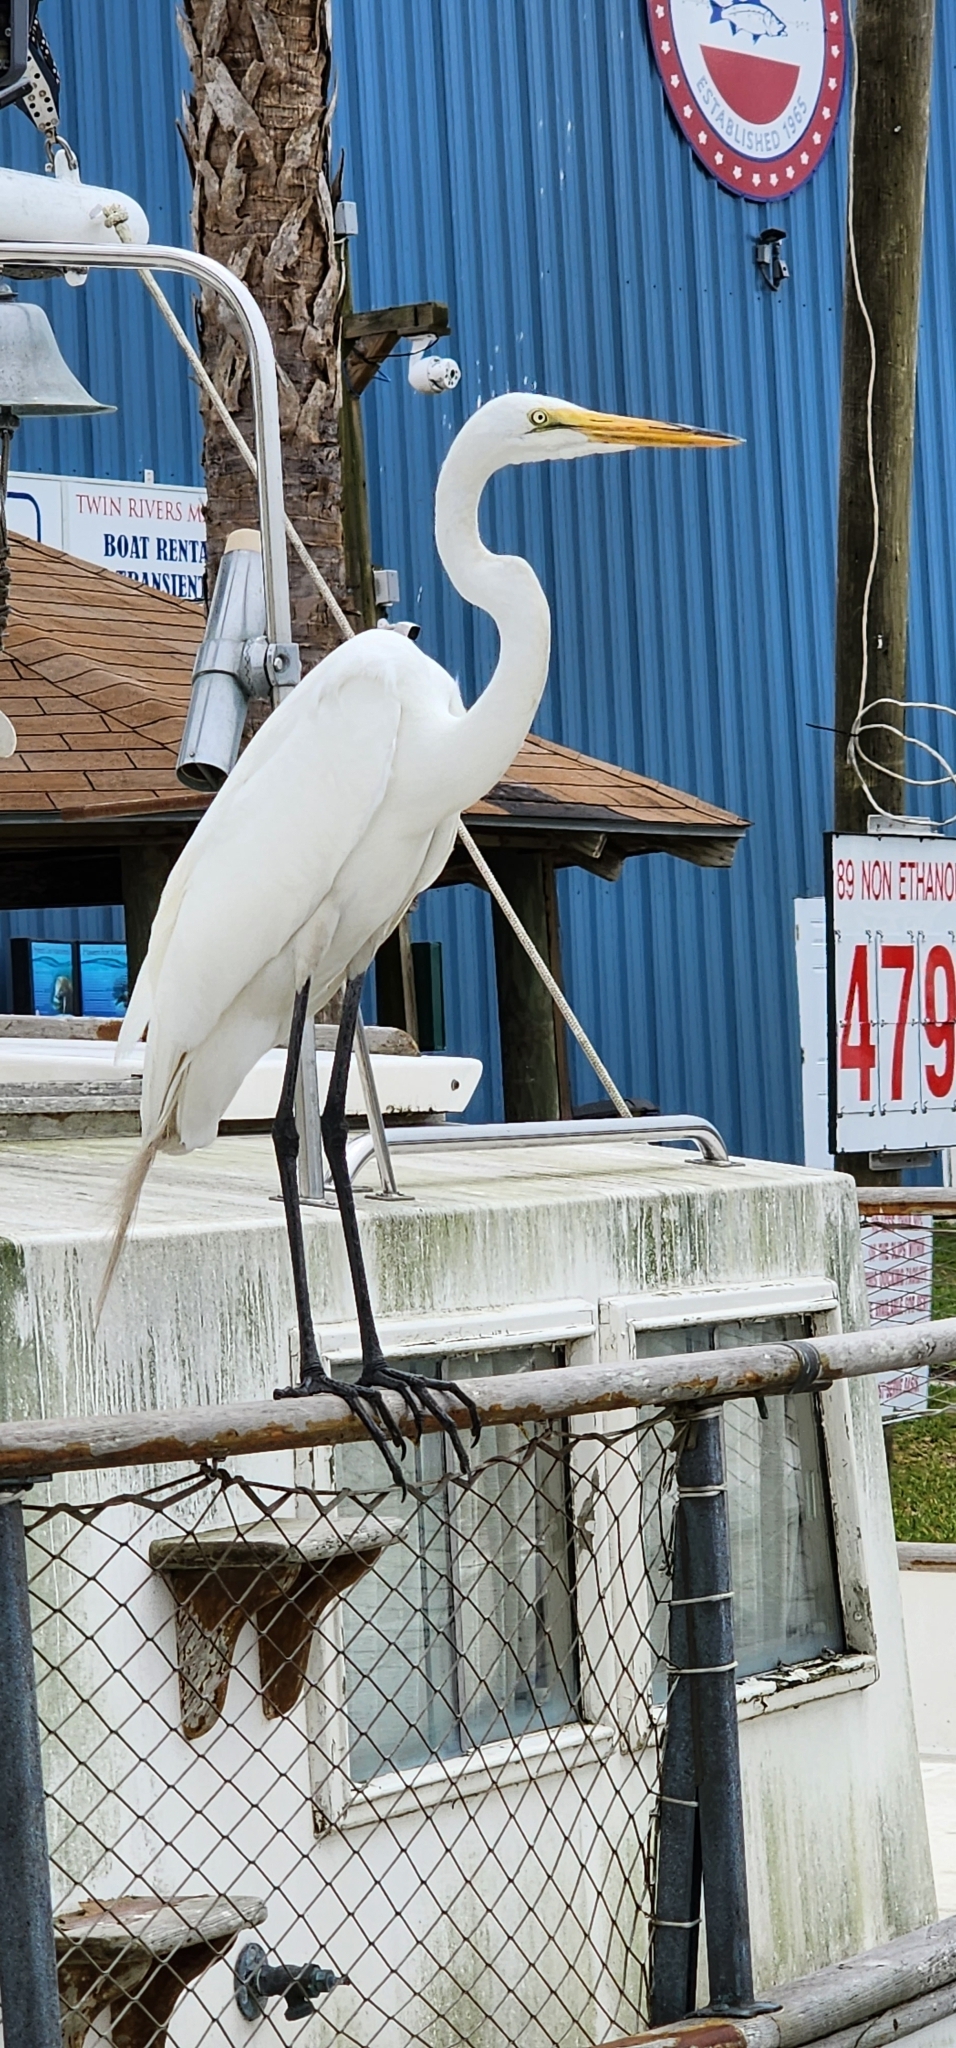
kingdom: Animalia
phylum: Chordata
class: Aves
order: Pelecaniformes
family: Ardeidae
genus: Ardea
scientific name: Ardea alba
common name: Great egret
